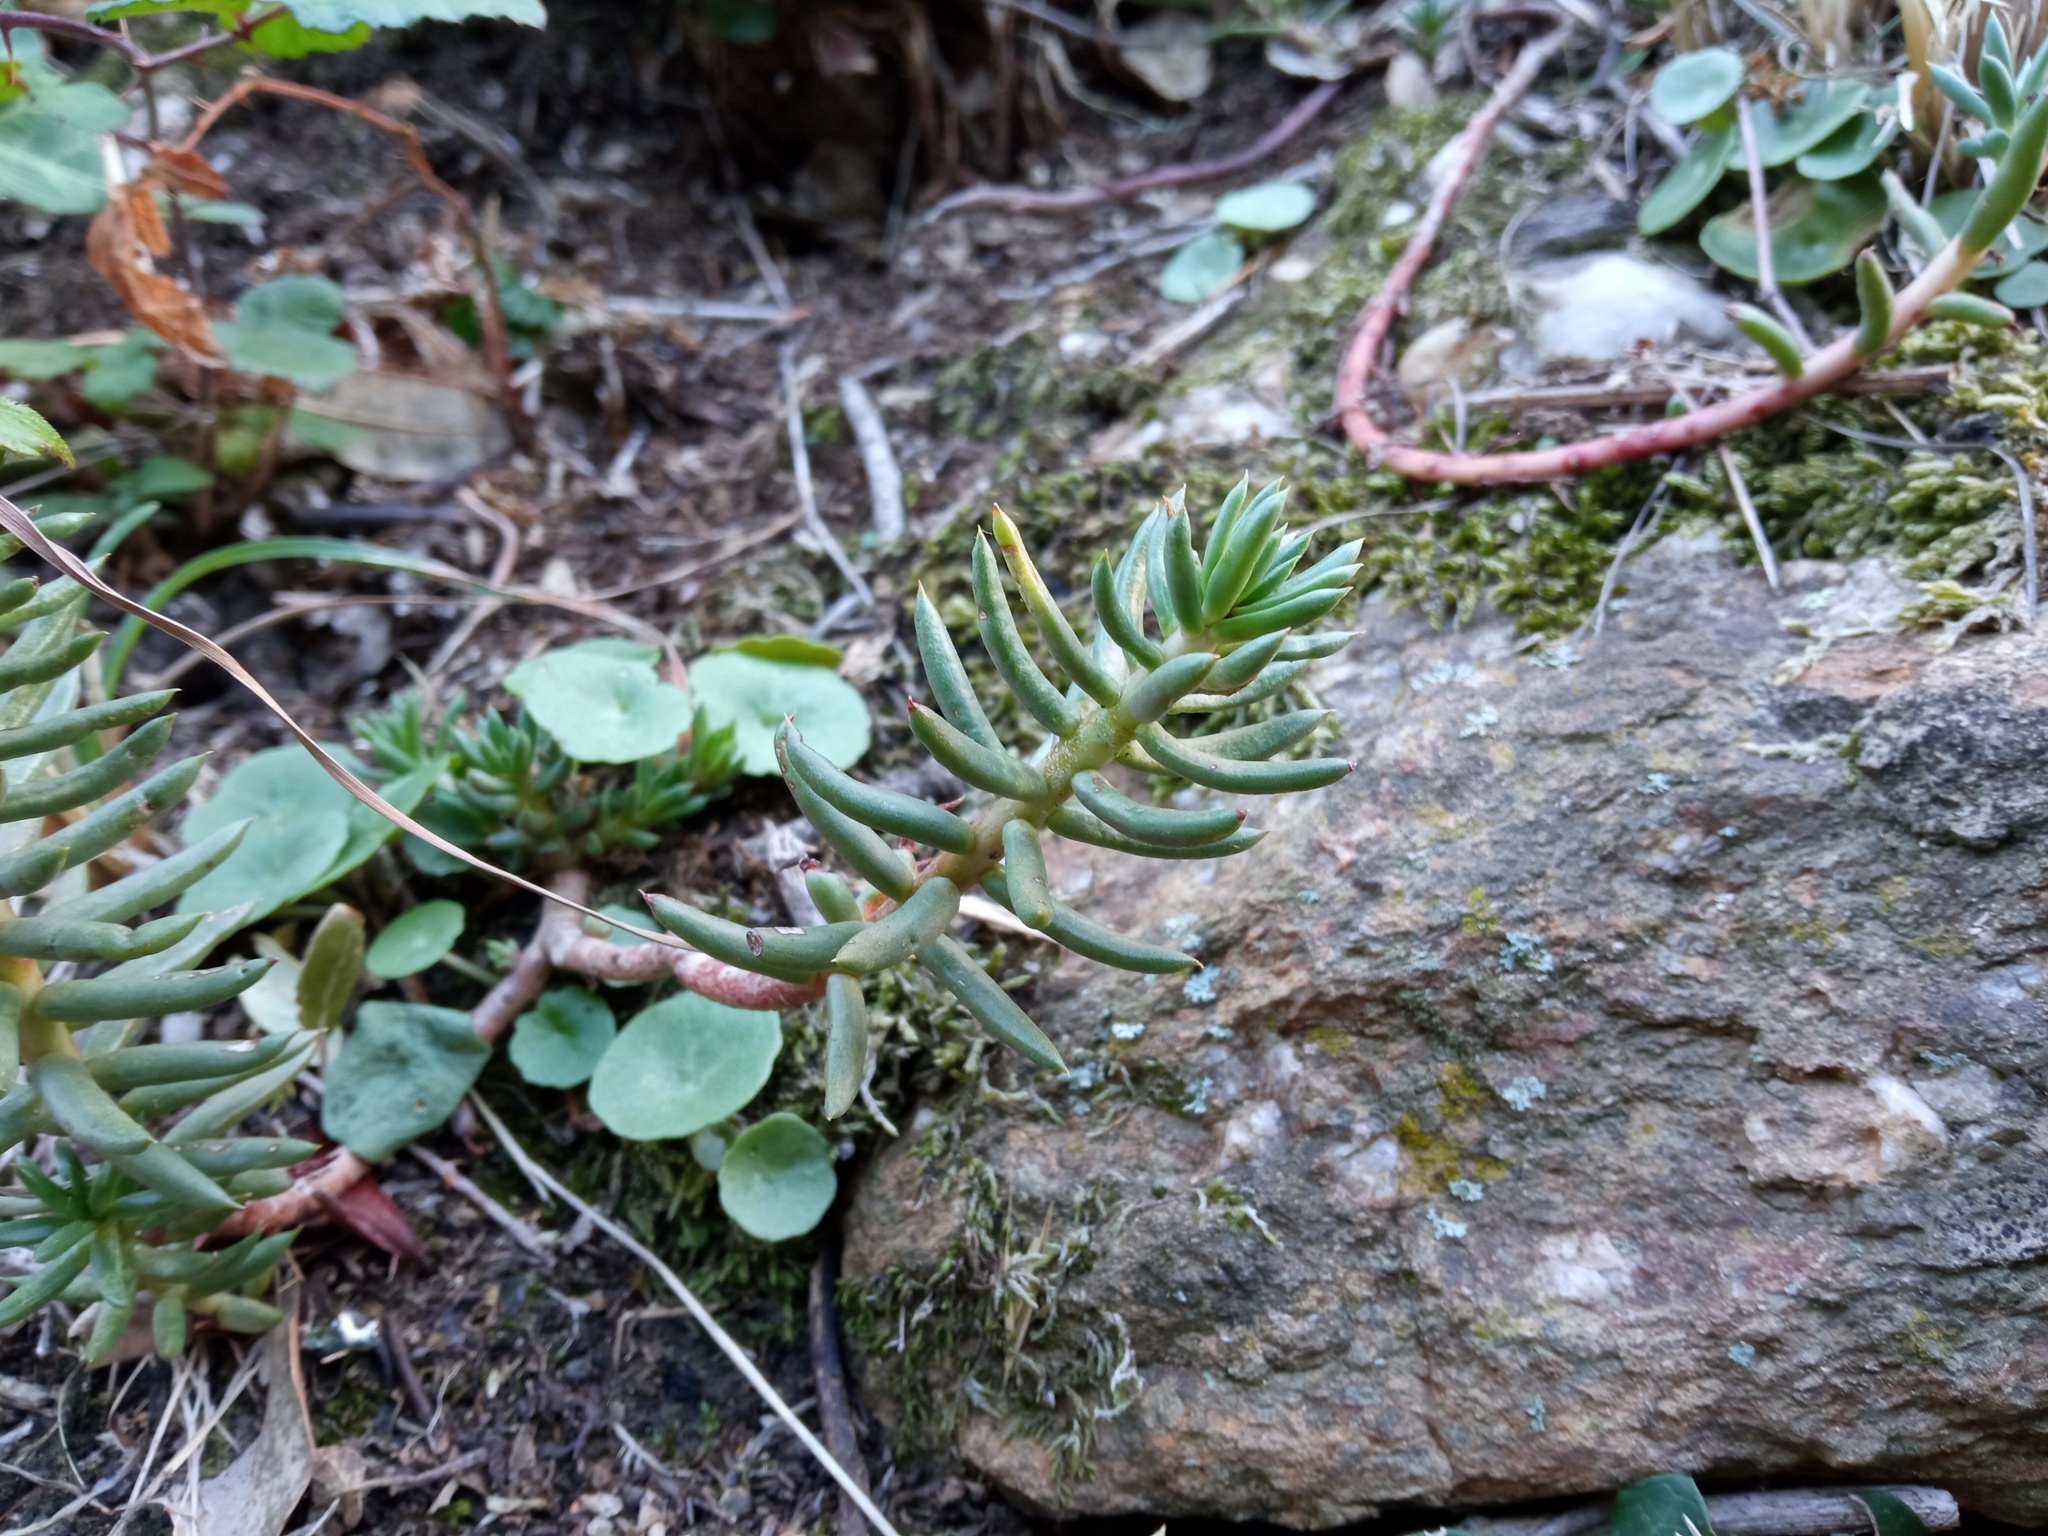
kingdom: Plantae
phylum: Tracheophyta
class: Magnoliopsida
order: Saxifragales
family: Crassulaceae
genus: Petrosedum
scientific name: Petrosedum sediforme
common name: Pale stonecrop
